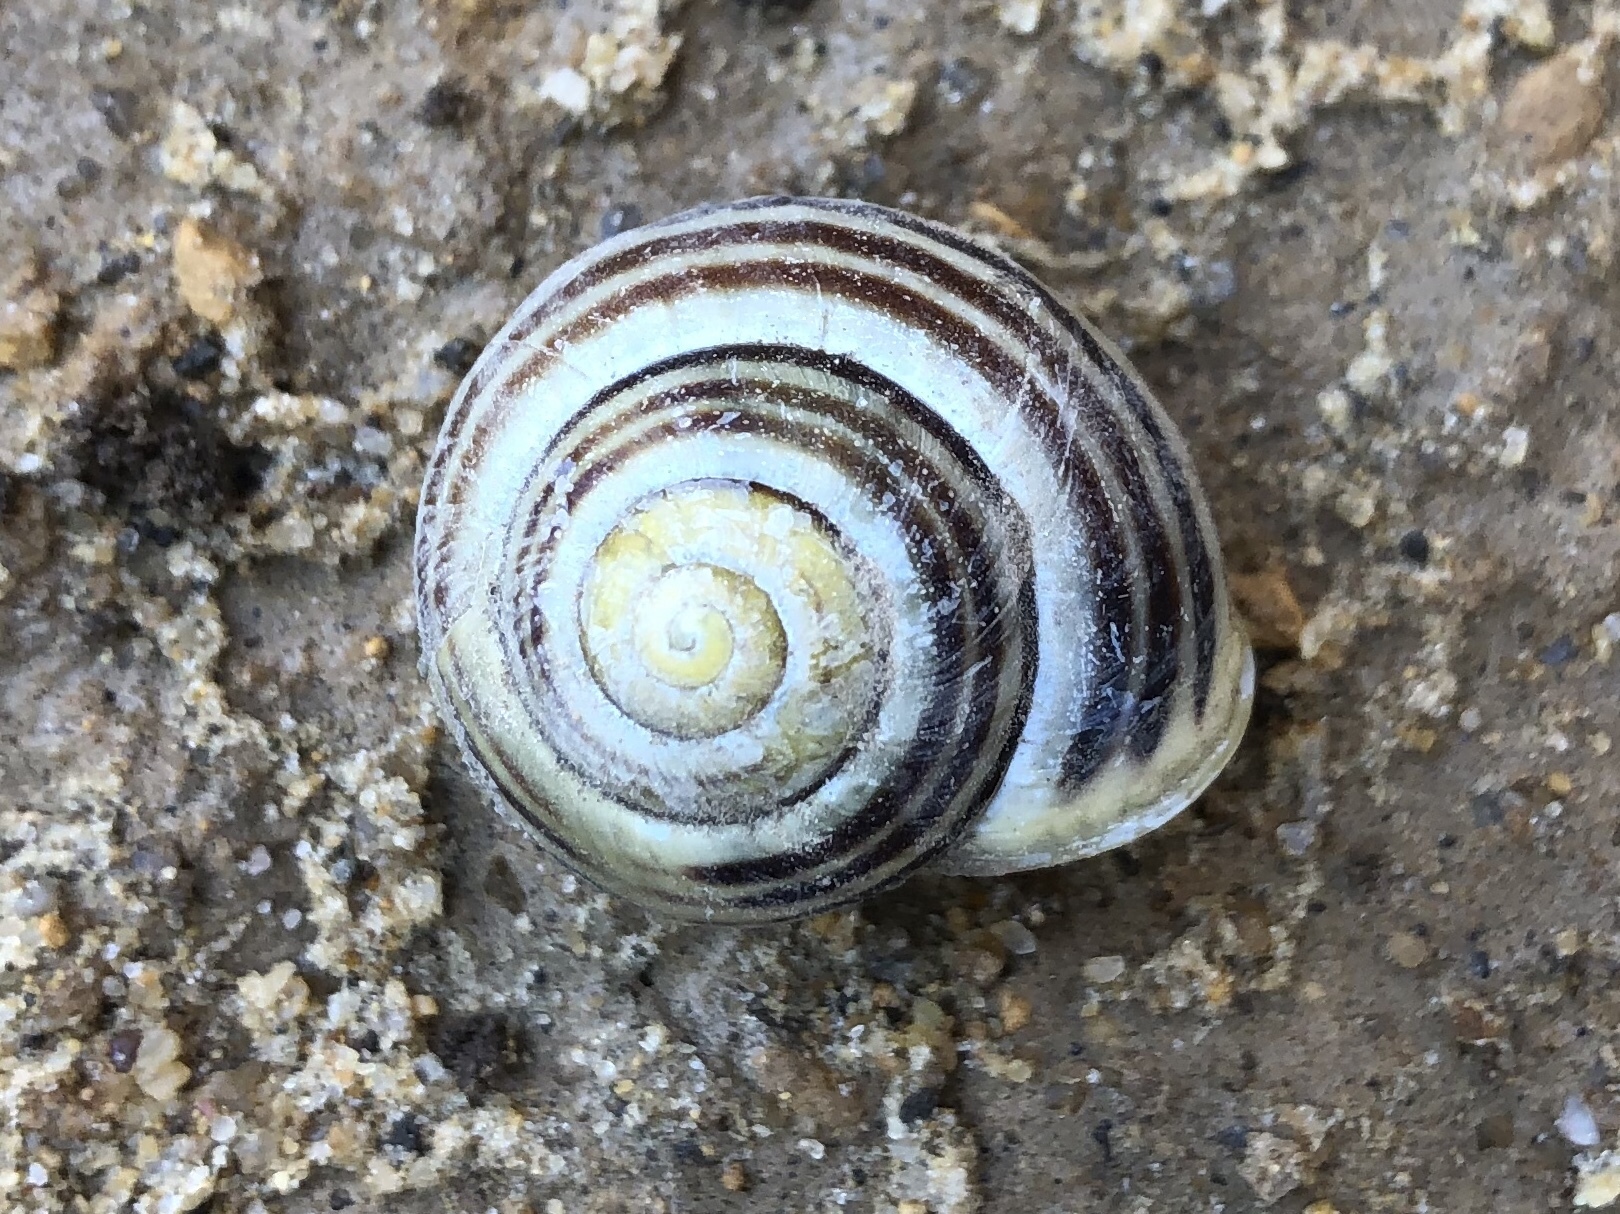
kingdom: Animalia
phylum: Mollusca
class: Gastropoda
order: Stylommatophora
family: Helicidae
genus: Cepaea
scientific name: Cepaea hortensis
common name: White-lip gardensnail
